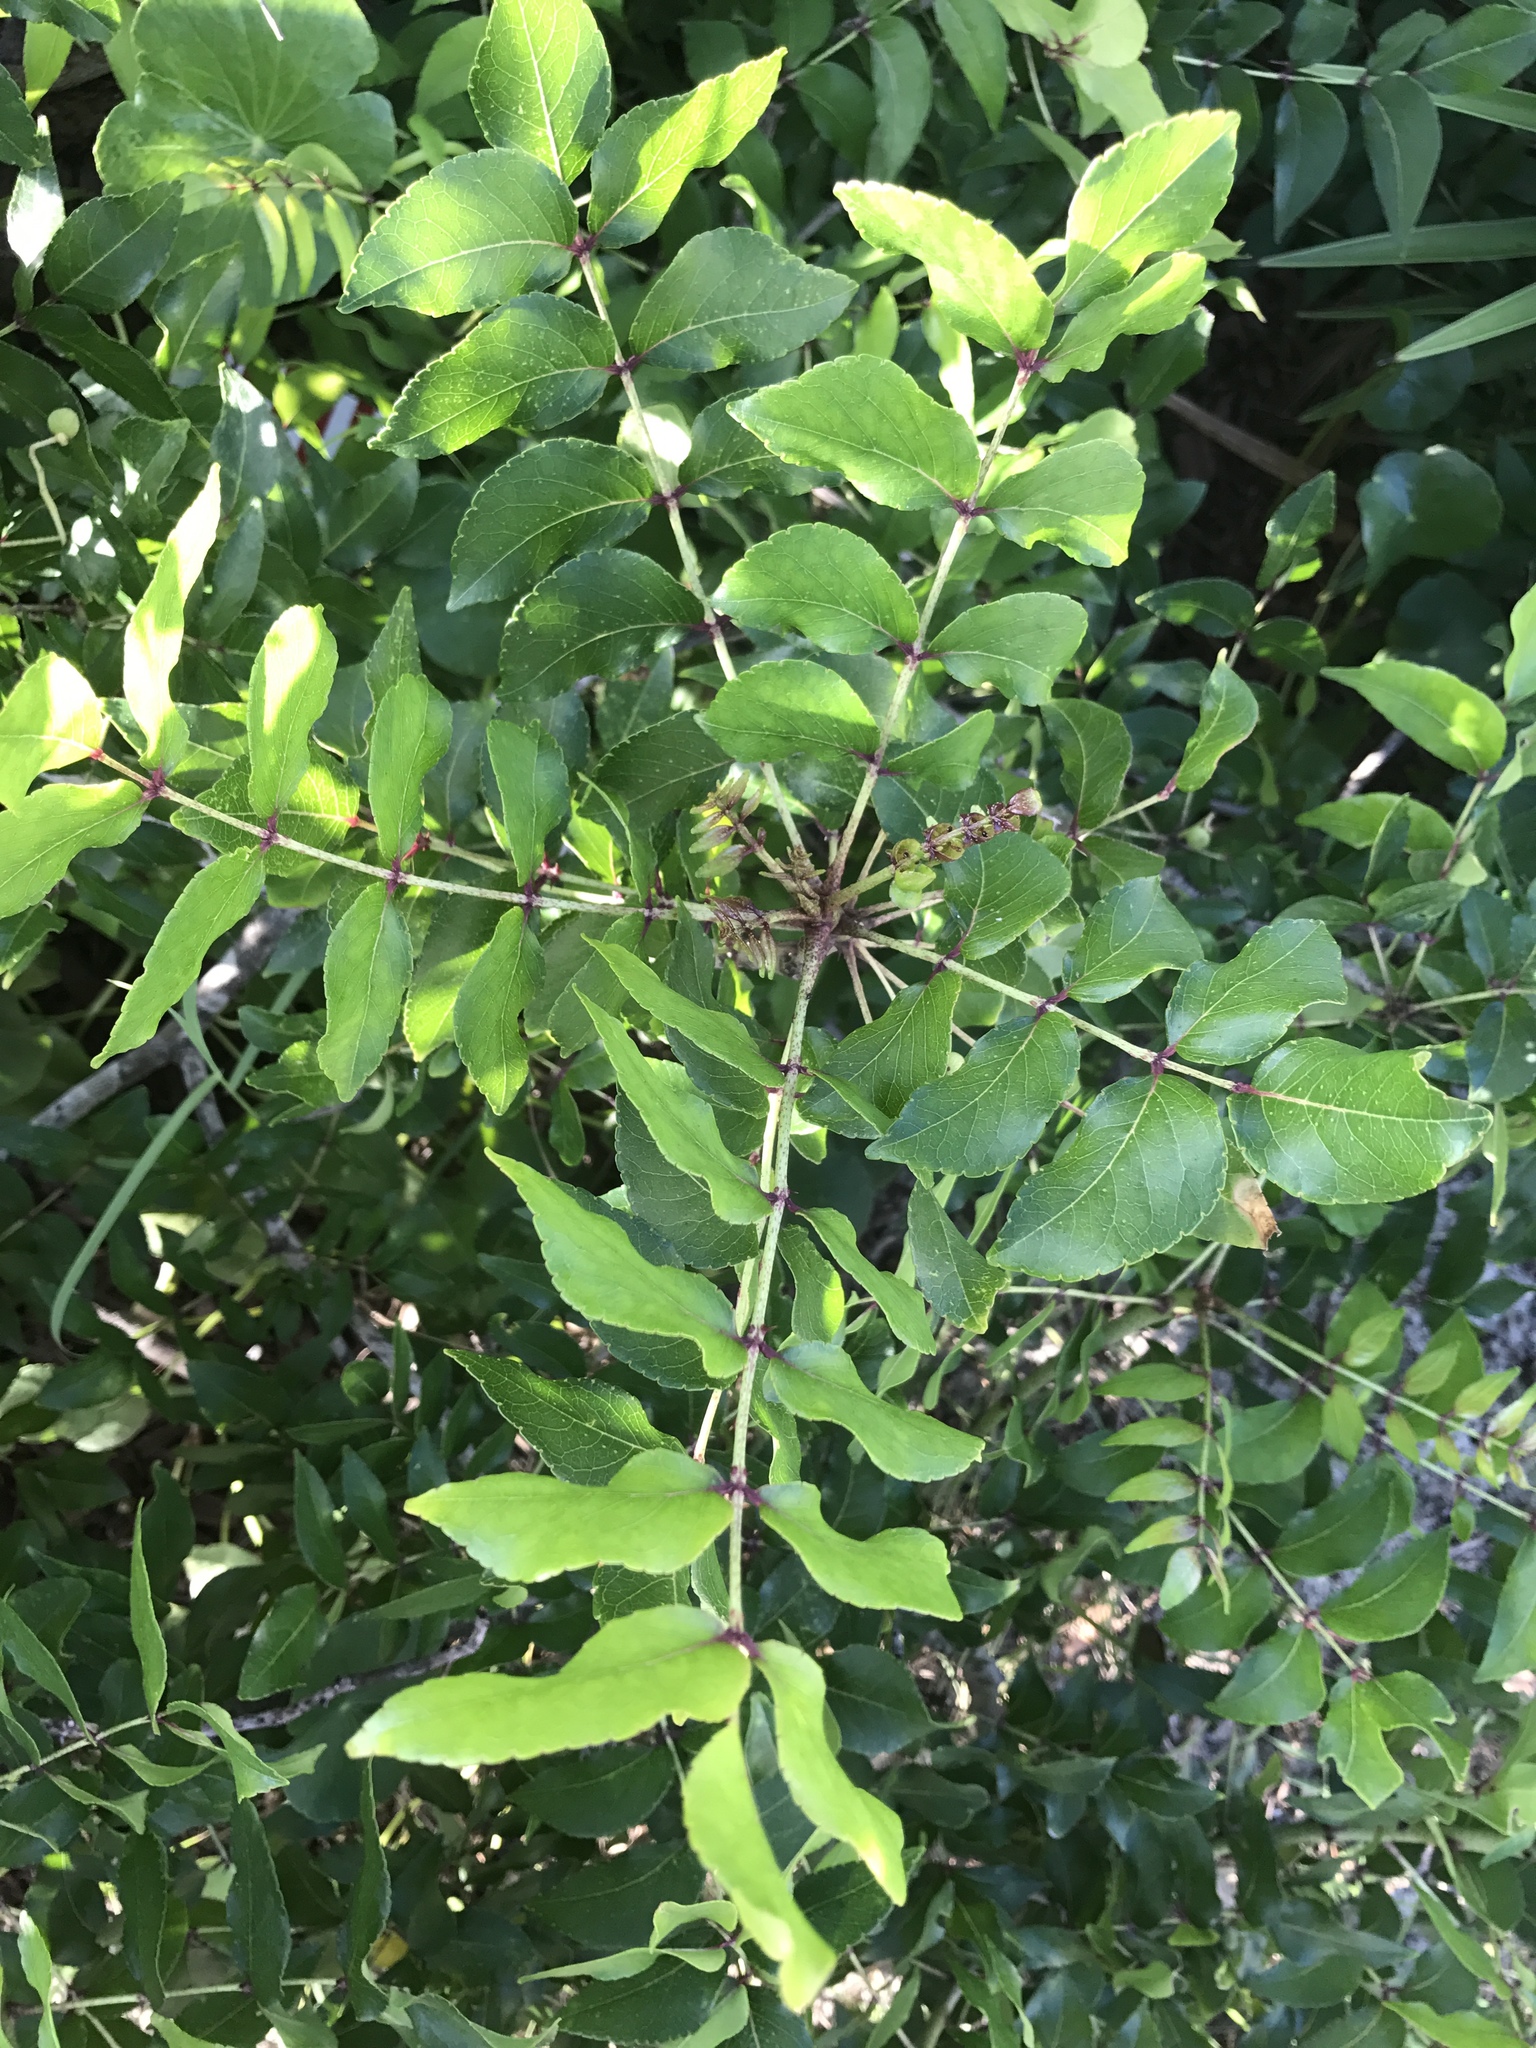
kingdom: Plantae
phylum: Tracheophyta
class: Magnoliopsida
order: Sapindales
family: Rutaceae
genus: Zanthoxylum
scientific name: Zanthoxylum clava-herculis
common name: Hercules'-club
